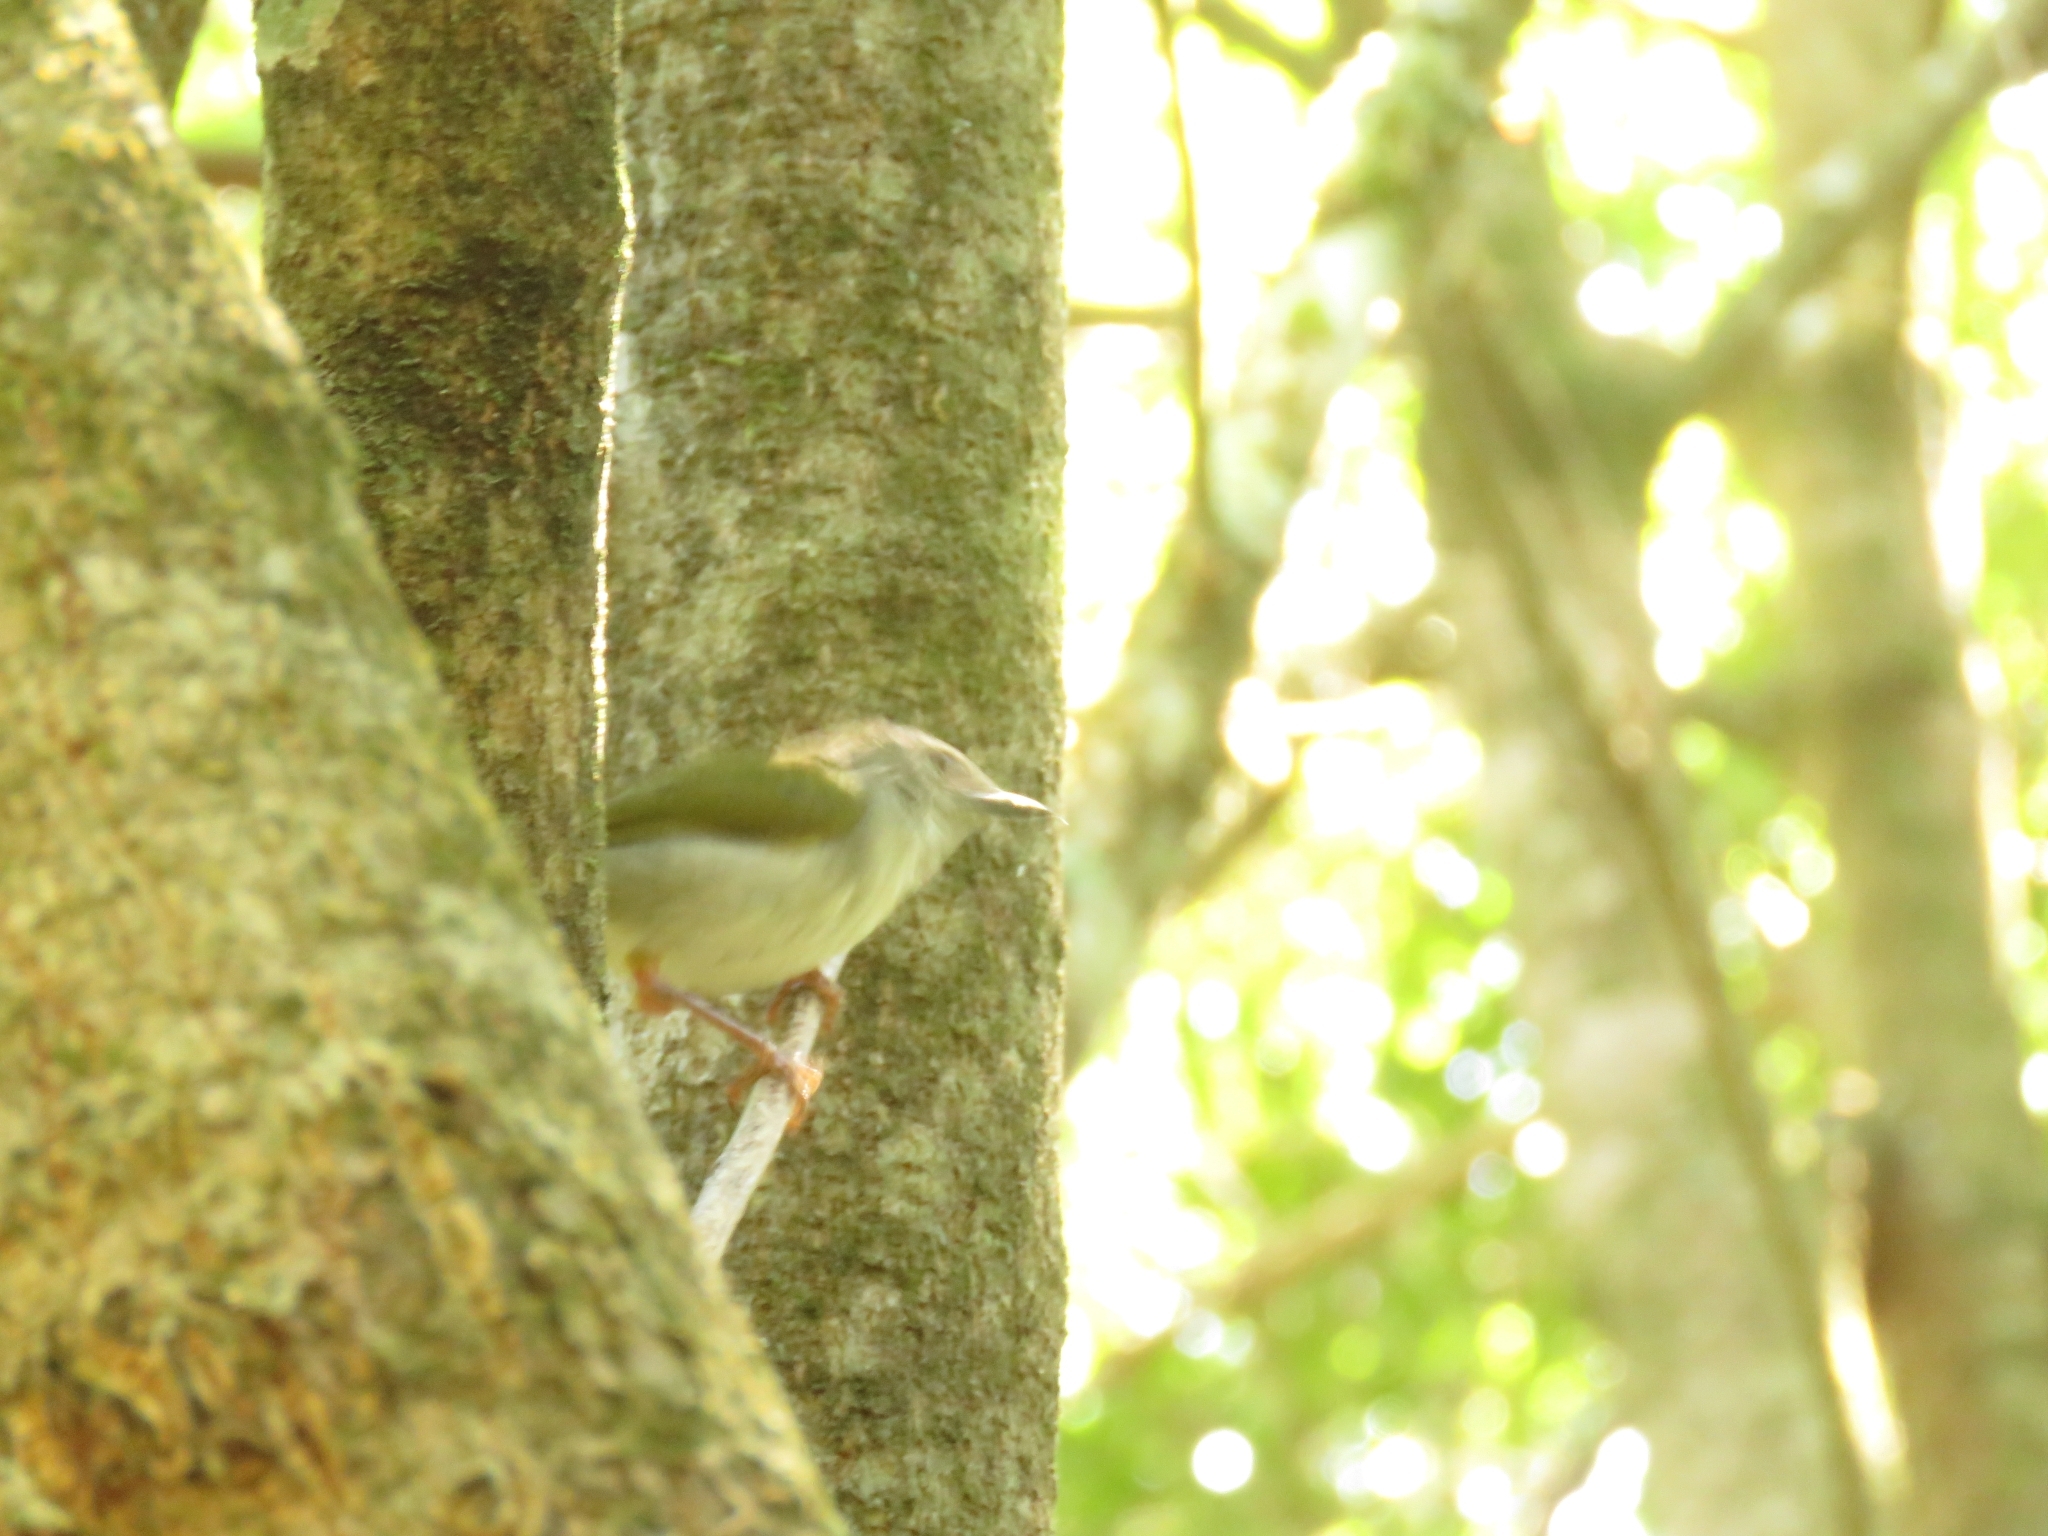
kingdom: Animalia
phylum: Chordata
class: Aves
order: Passeriformes
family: Cisticolidae
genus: Camaroptera
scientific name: Camaroptera brachyura
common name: Green-backed camaroptera
